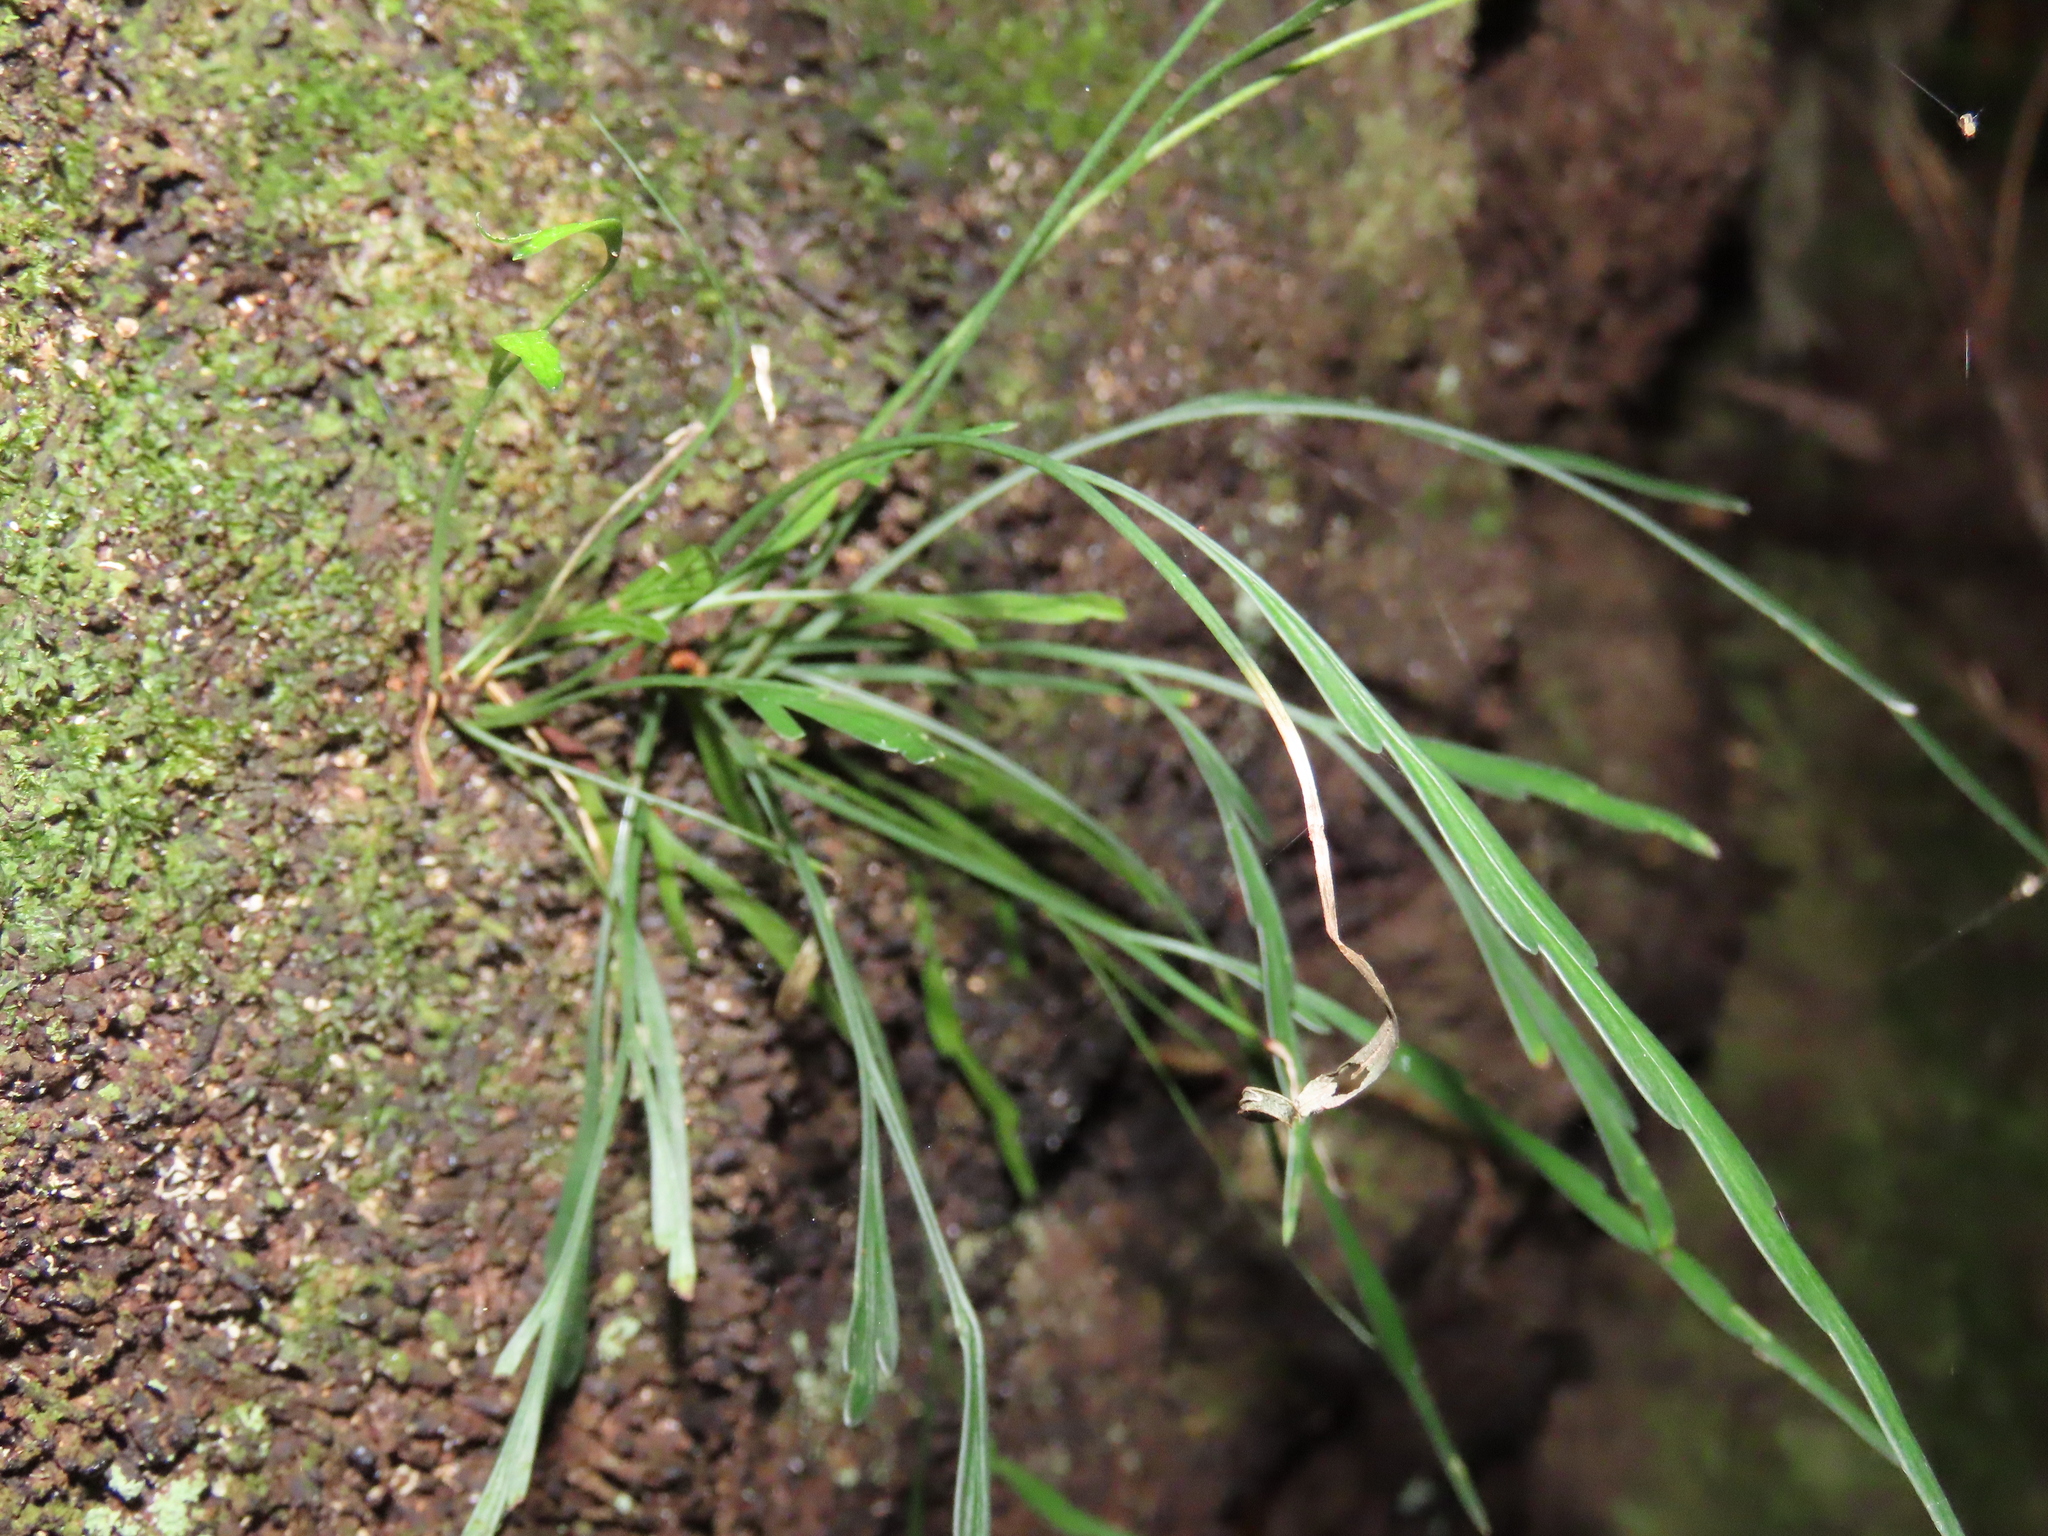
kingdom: Plantae
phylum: Tracheophyta
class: Polypodiopsida
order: Polypodiales
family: Aspleniaceae
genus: Asplenium
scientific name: Asplenium flaccidum
